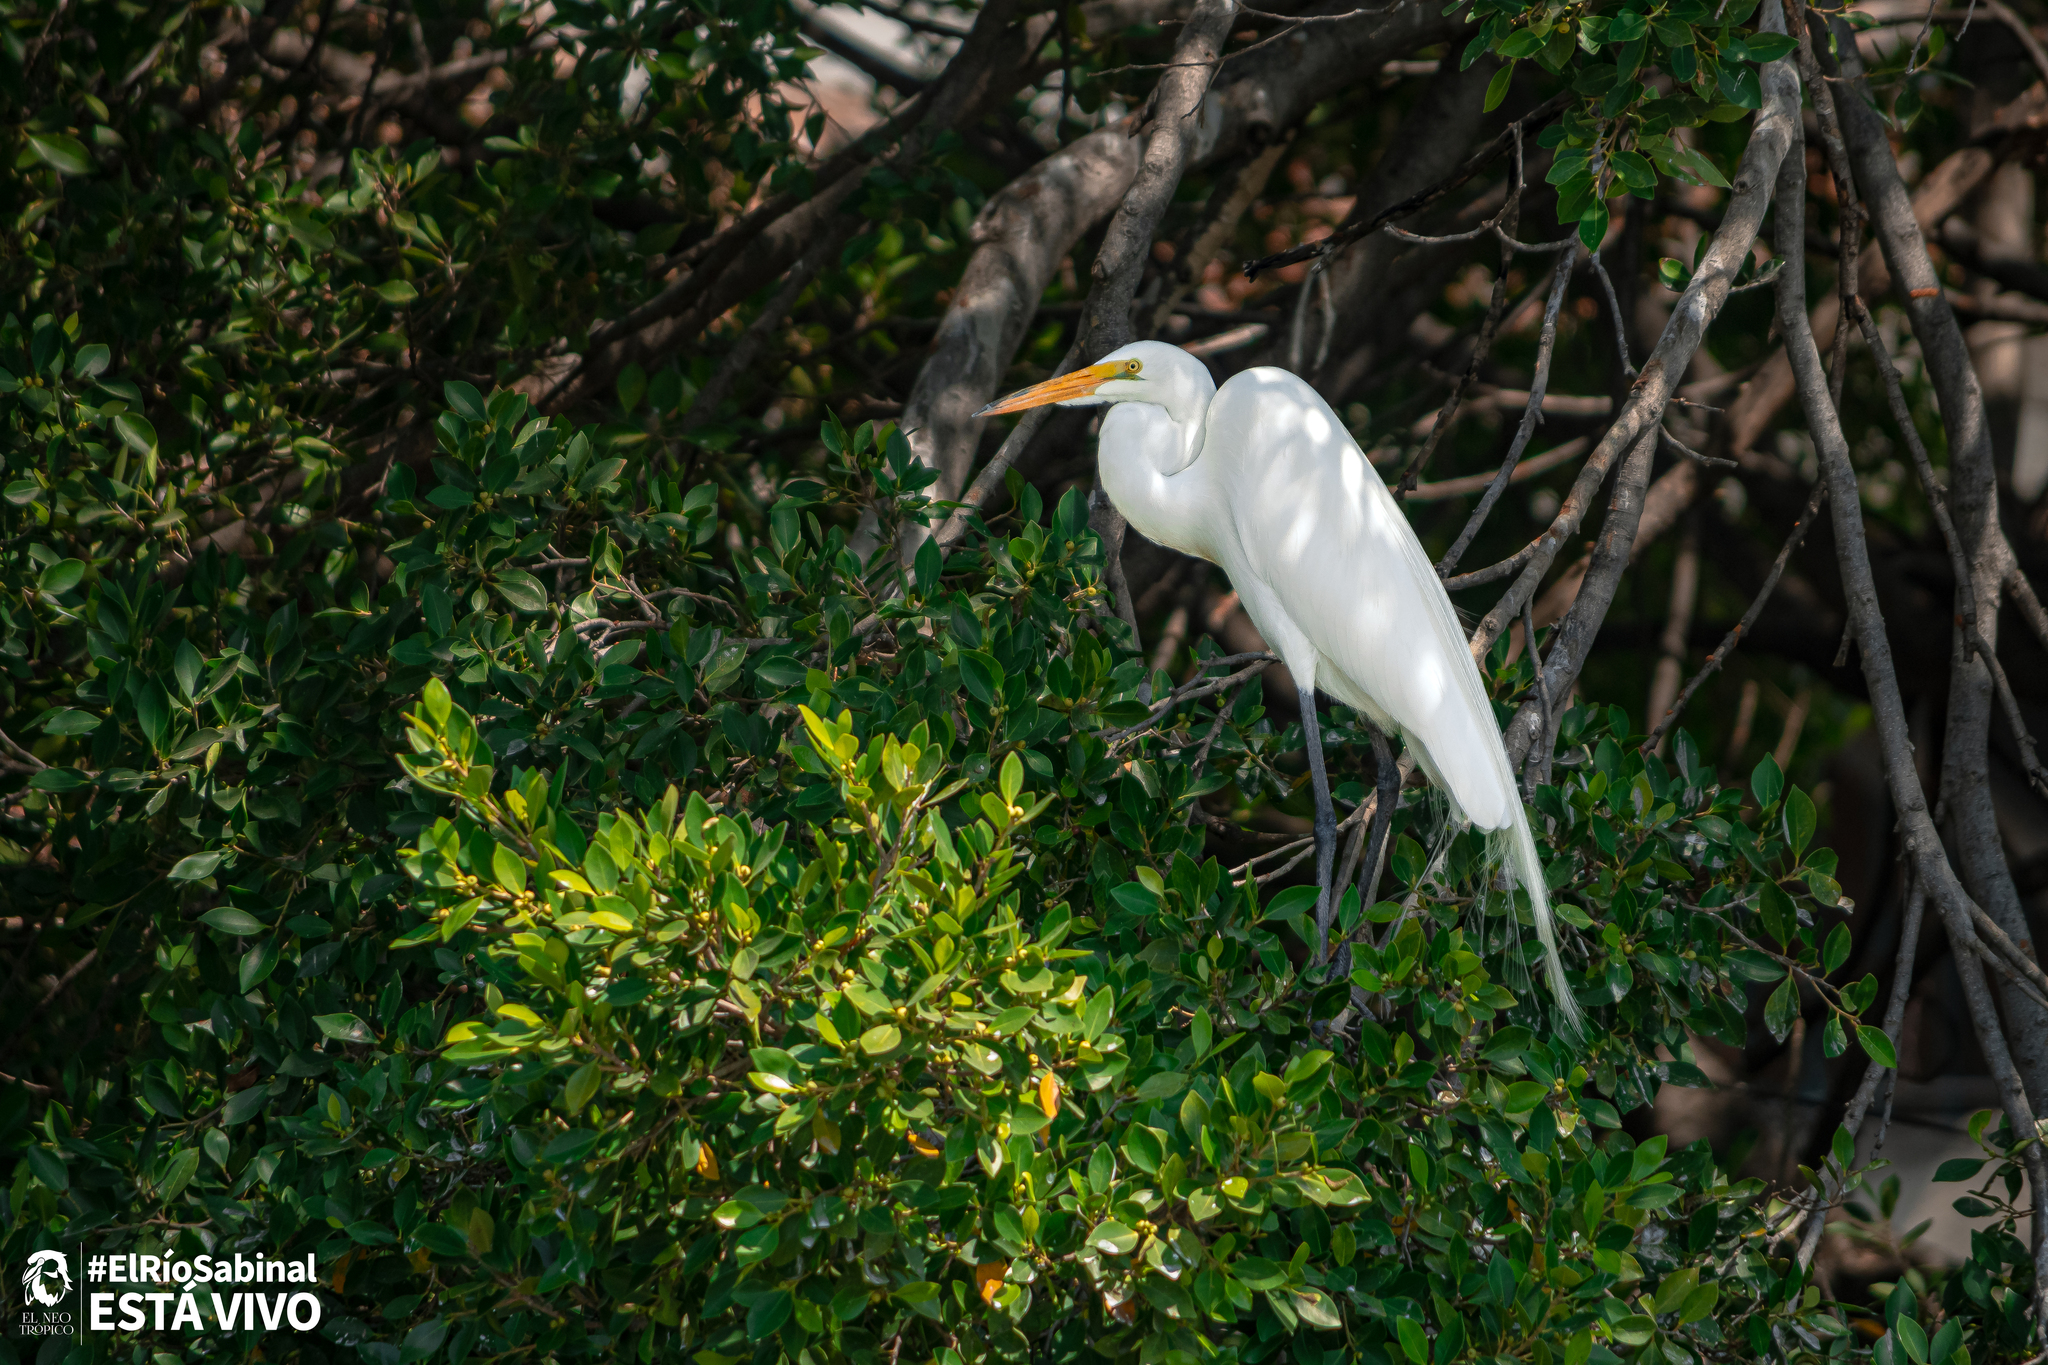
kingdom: Animalia
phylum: Chordata
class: Aves
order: Pelecaniformes
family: Ardeidae
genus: Ardea
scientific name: Ardea alba
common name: Great egret
